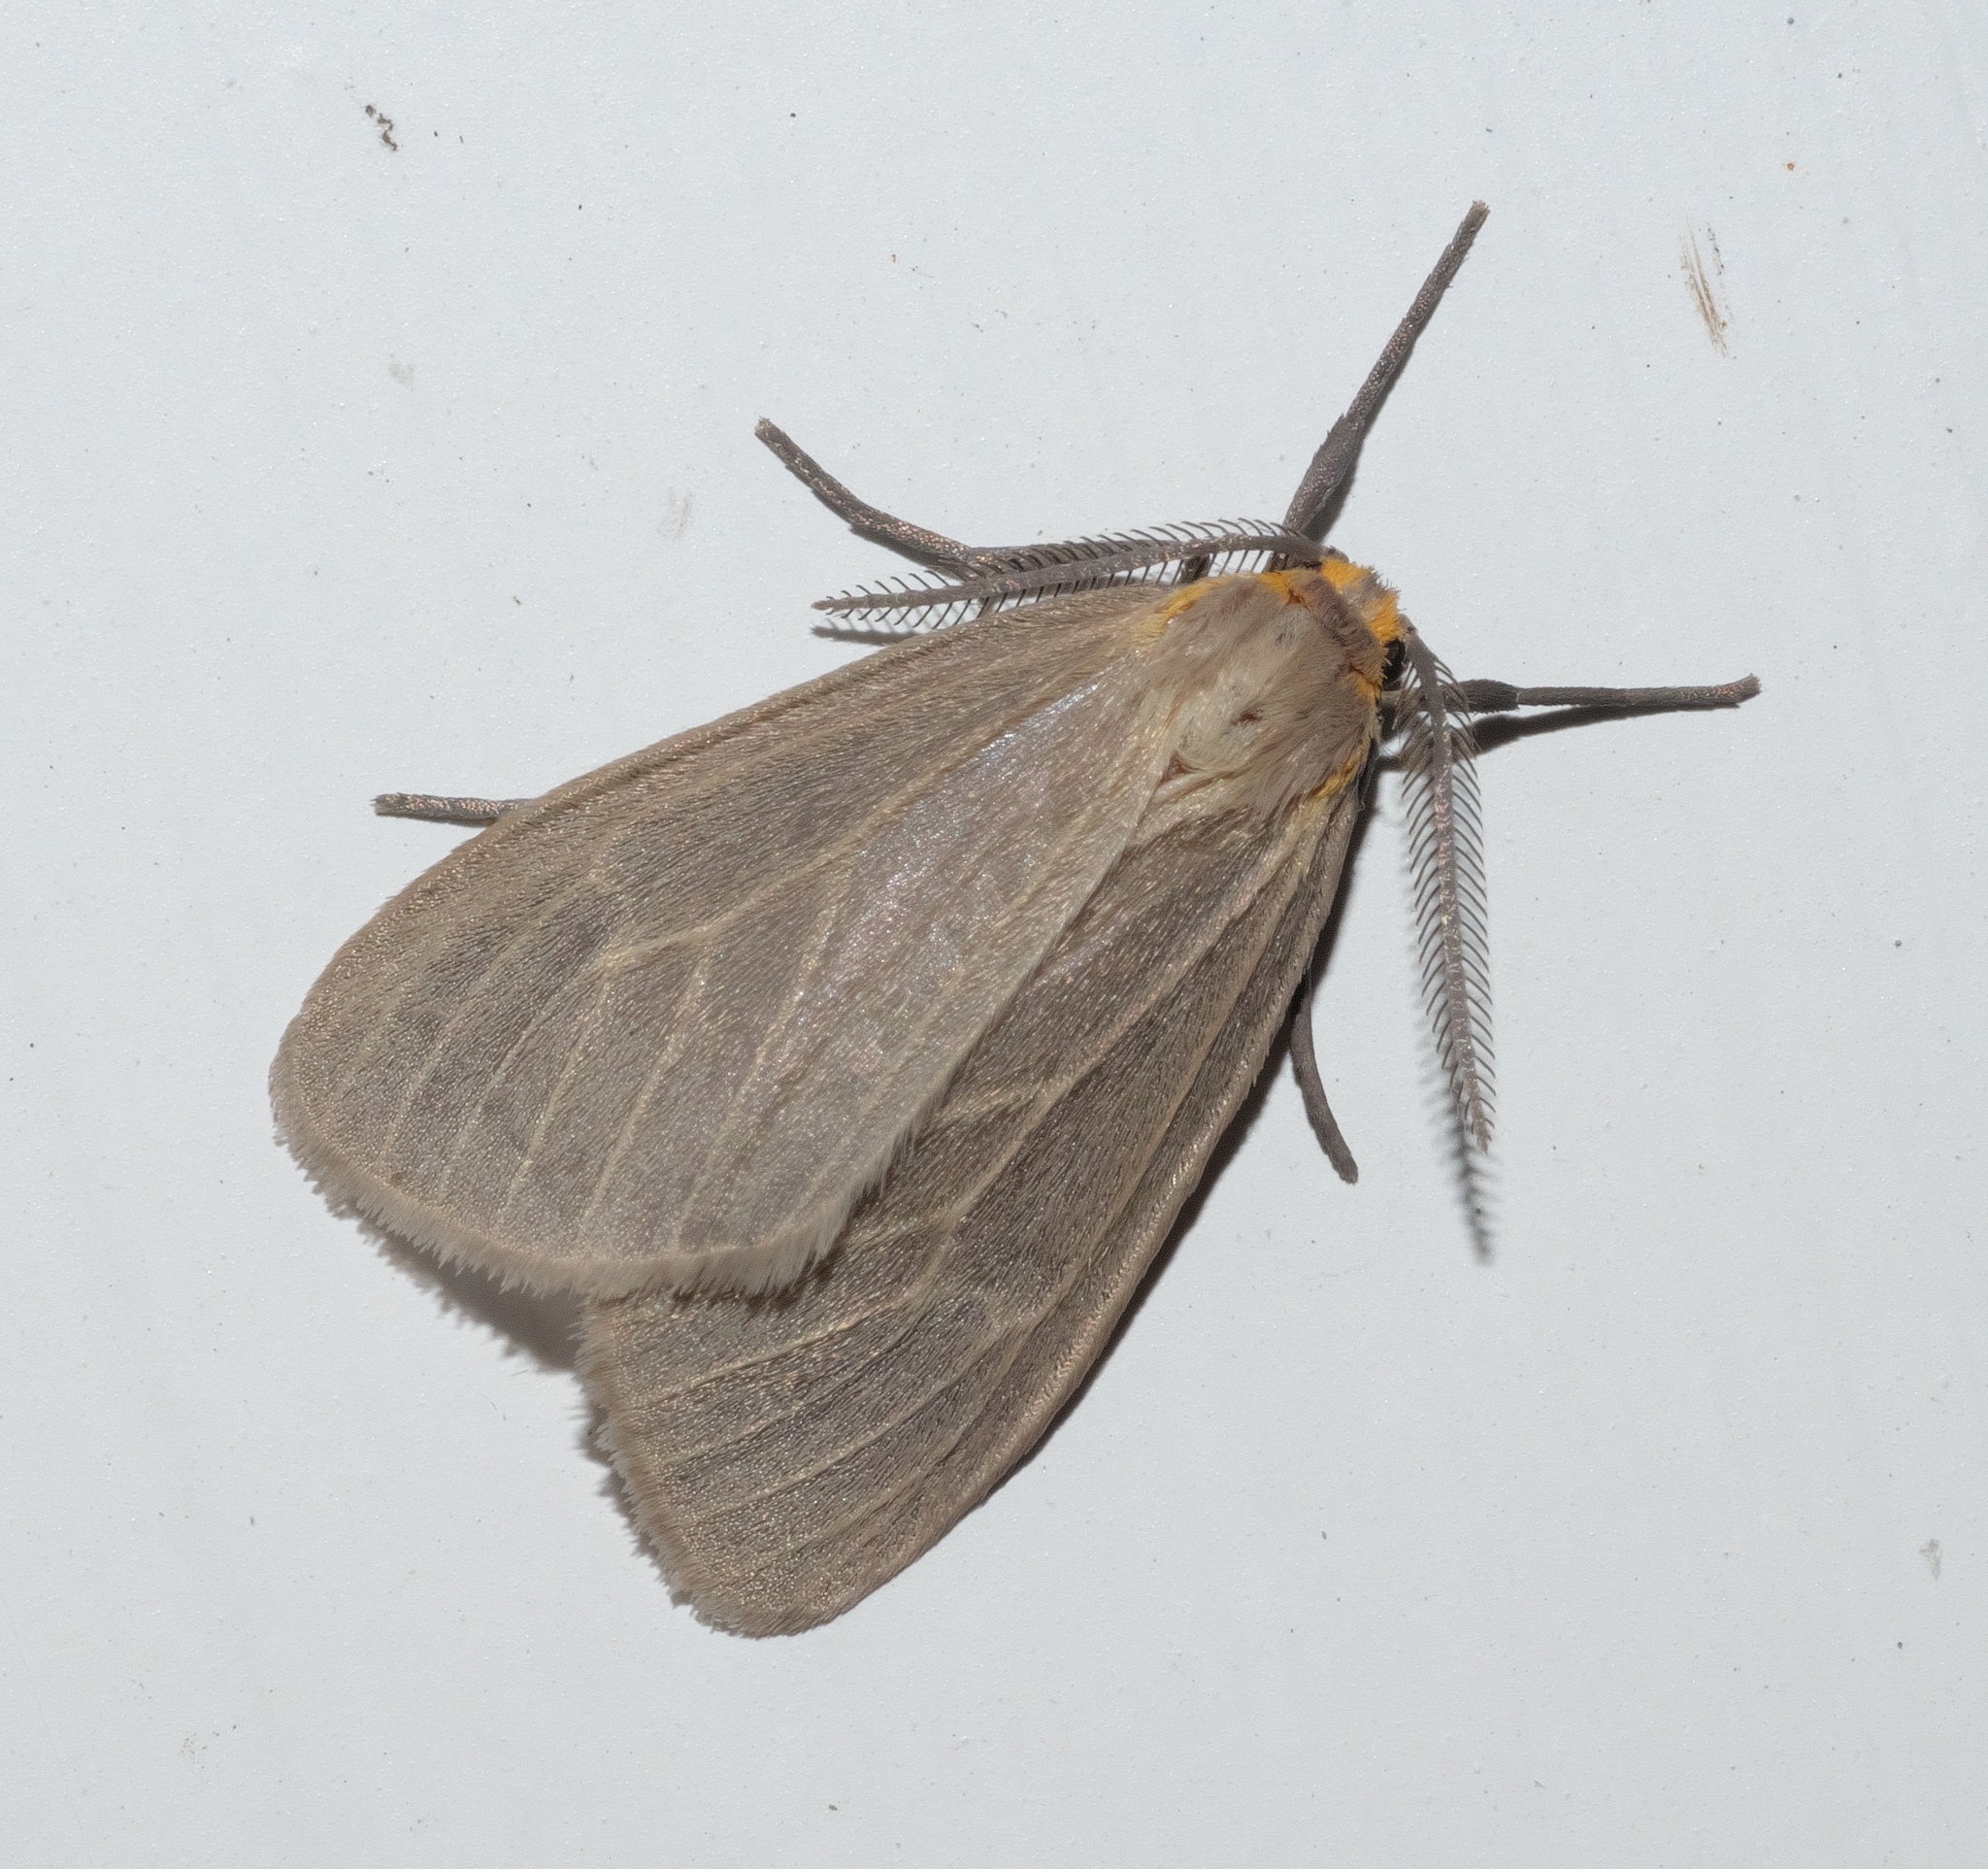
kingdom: Animalia
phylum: Arthropoda
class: Insecta
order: Lepidoptera
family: Erebidae
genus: Pagara
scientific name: Pagara simplex
